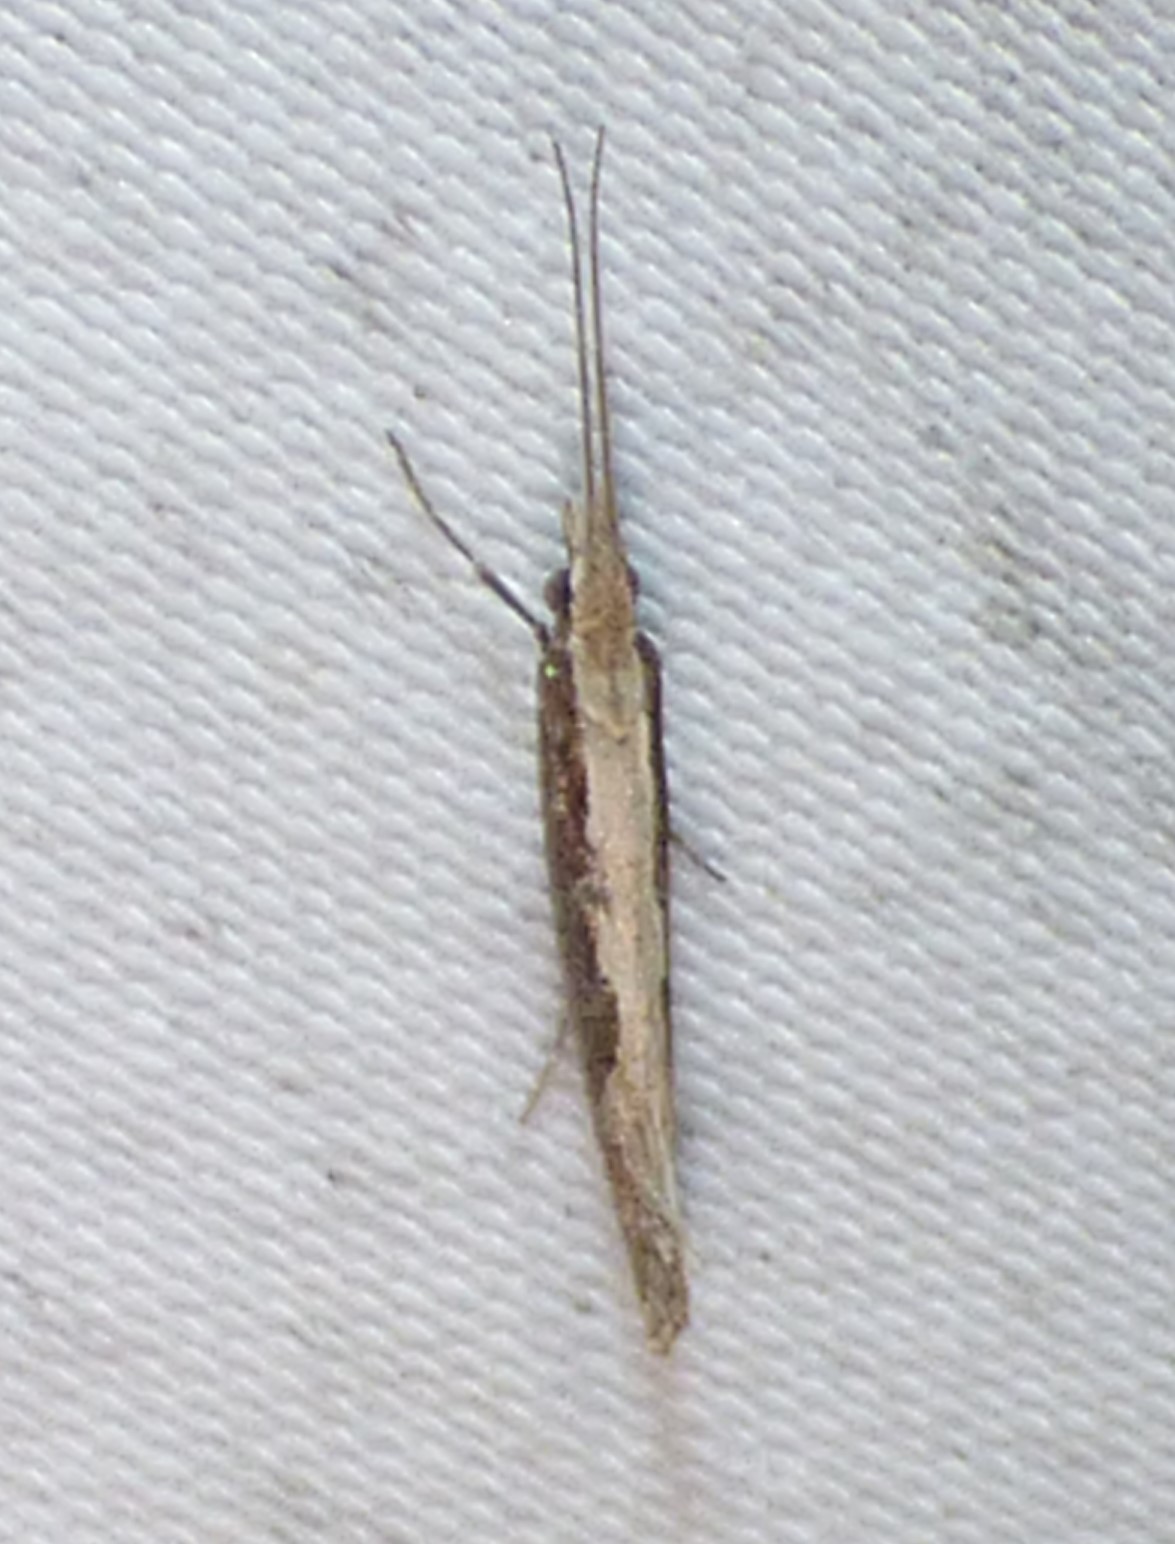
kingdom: Animalia
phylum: Arthropoda
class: Insecta
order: Lepidoptera
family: Plutellidae
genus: Plutella
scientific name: Plutella xylostella
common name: Diamond-back moth
